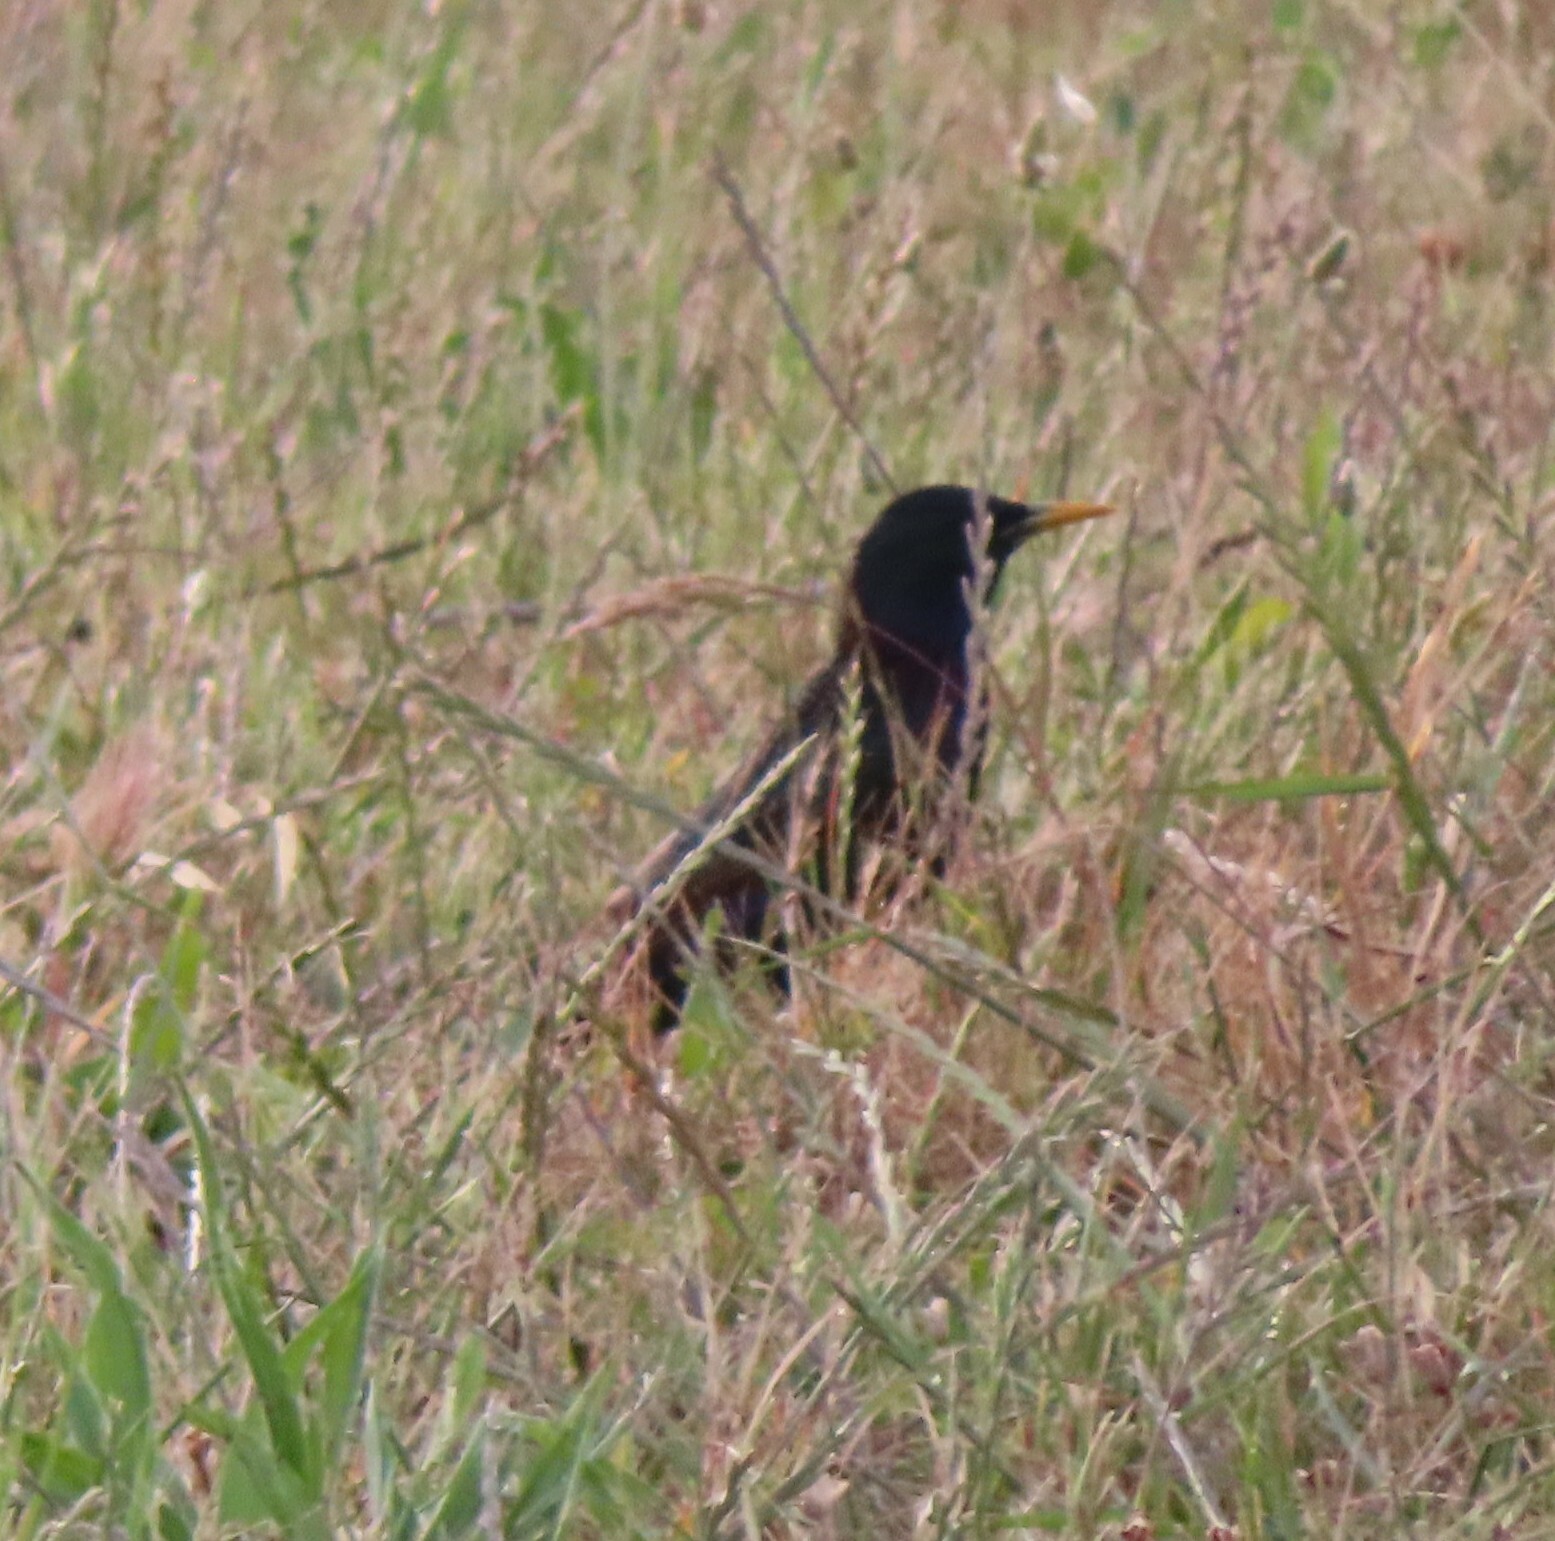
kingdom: Animalia
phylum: Chordata
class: Aves
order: Passeriformes
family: Sturnidae
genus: Sturnus
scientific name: Sturnus vulgaris
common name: Common starling
